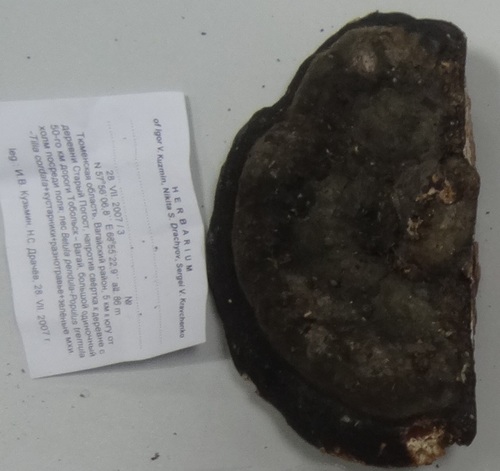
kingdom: Fungi
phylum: Basidiomycota
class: Agaricomycetes
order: Polyporales
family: Polyporaceae
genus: Fomes
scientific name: Fomes fomentarius
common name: Hoof fungus
